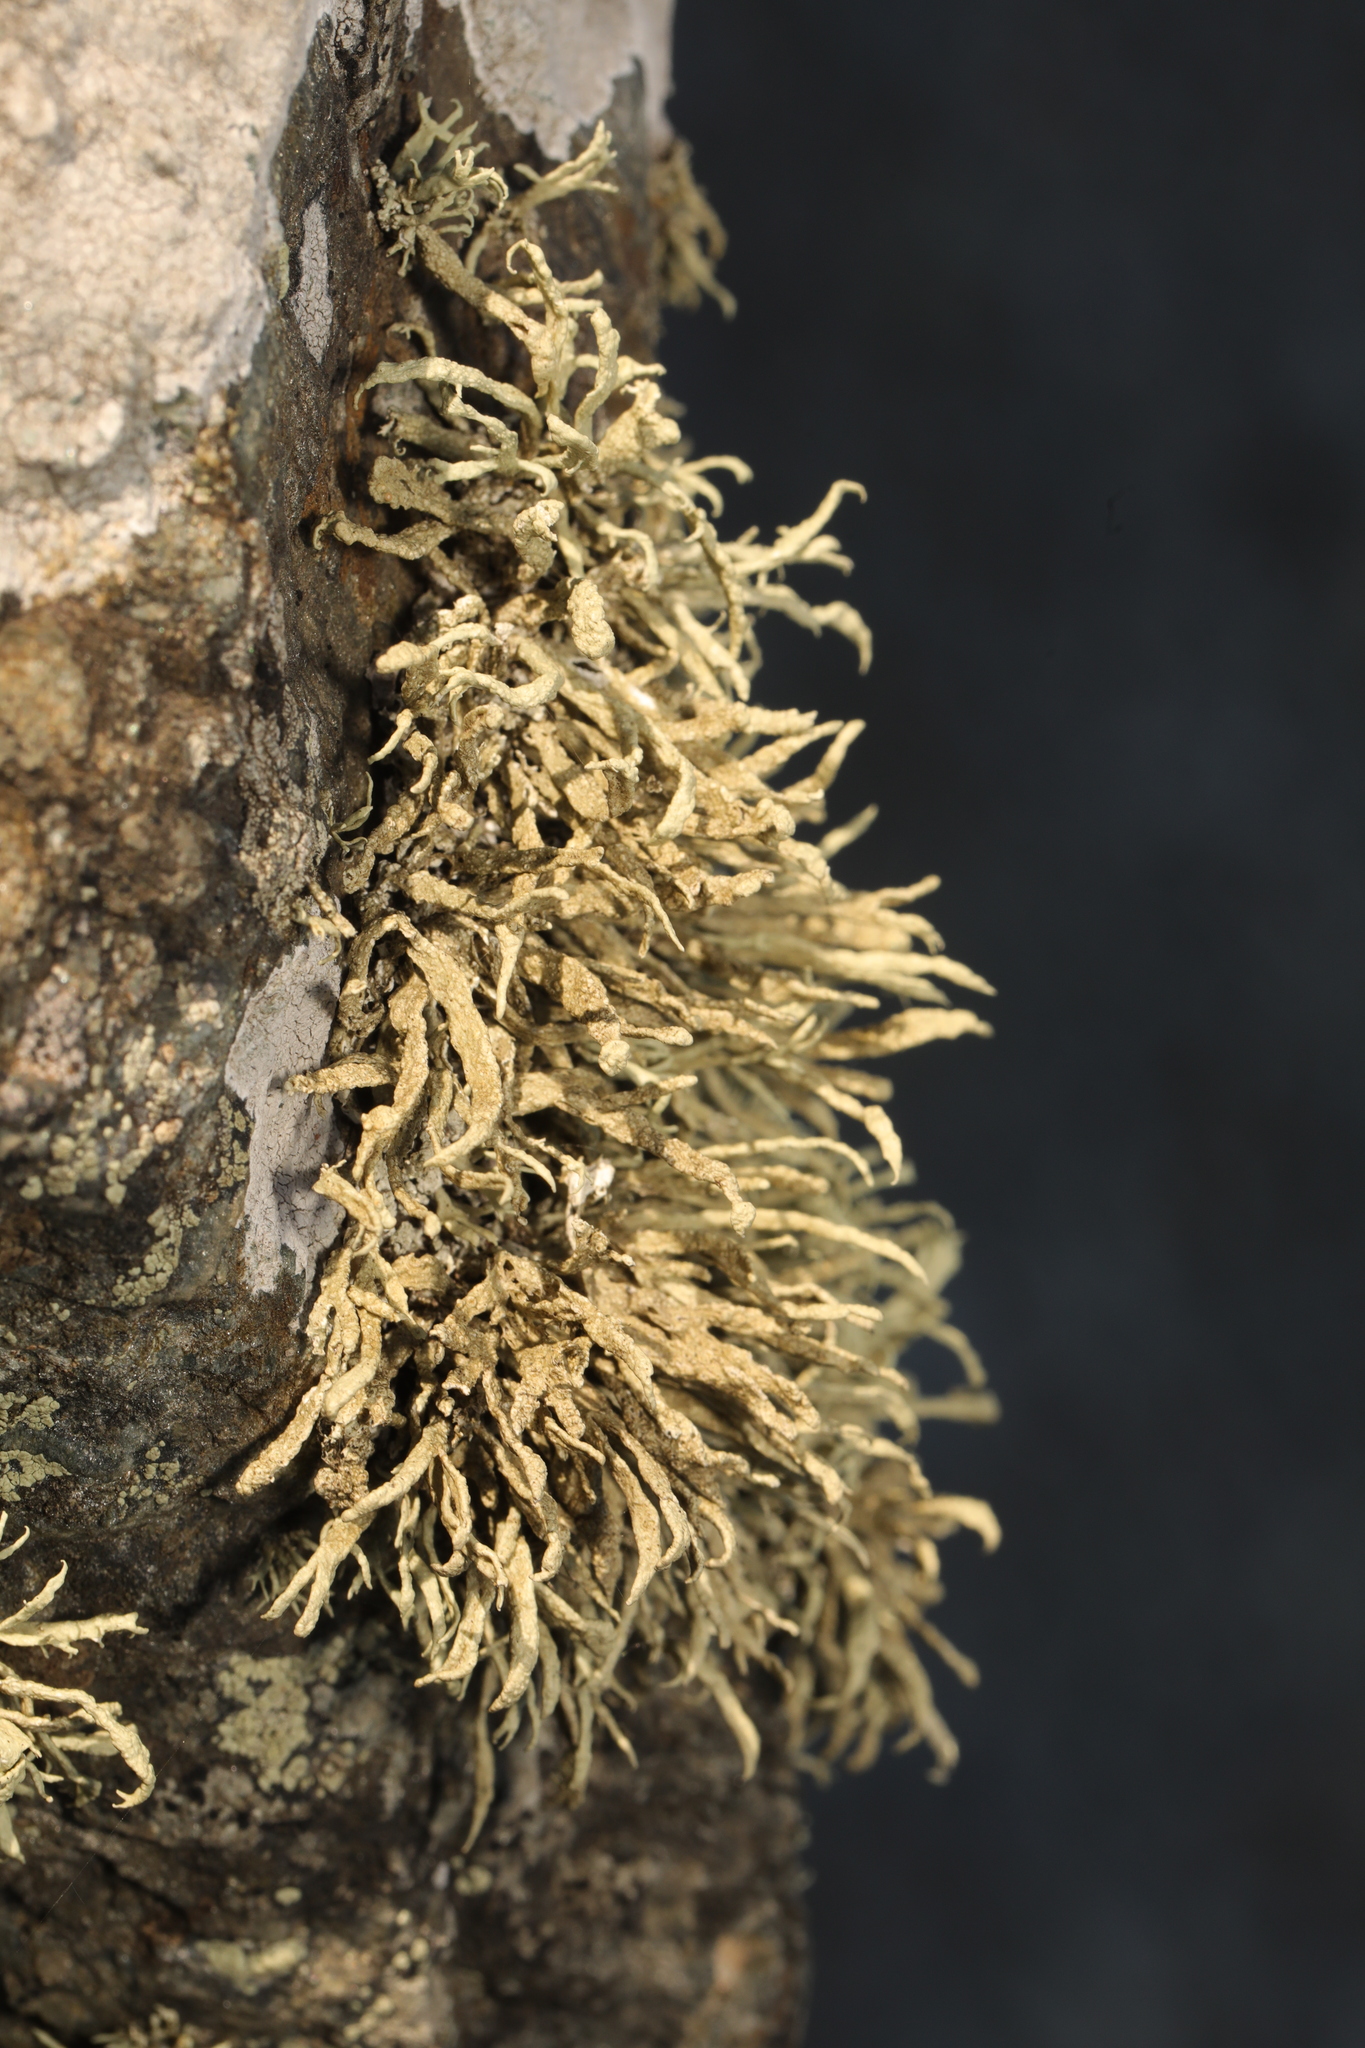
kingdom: Fungi
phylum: Ascomycota
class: Lecanoromycetes
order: Lecanorales
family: Ramalinaceae
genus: Ramalina
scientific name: Ramalina siliquosa
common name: Sea ivory
